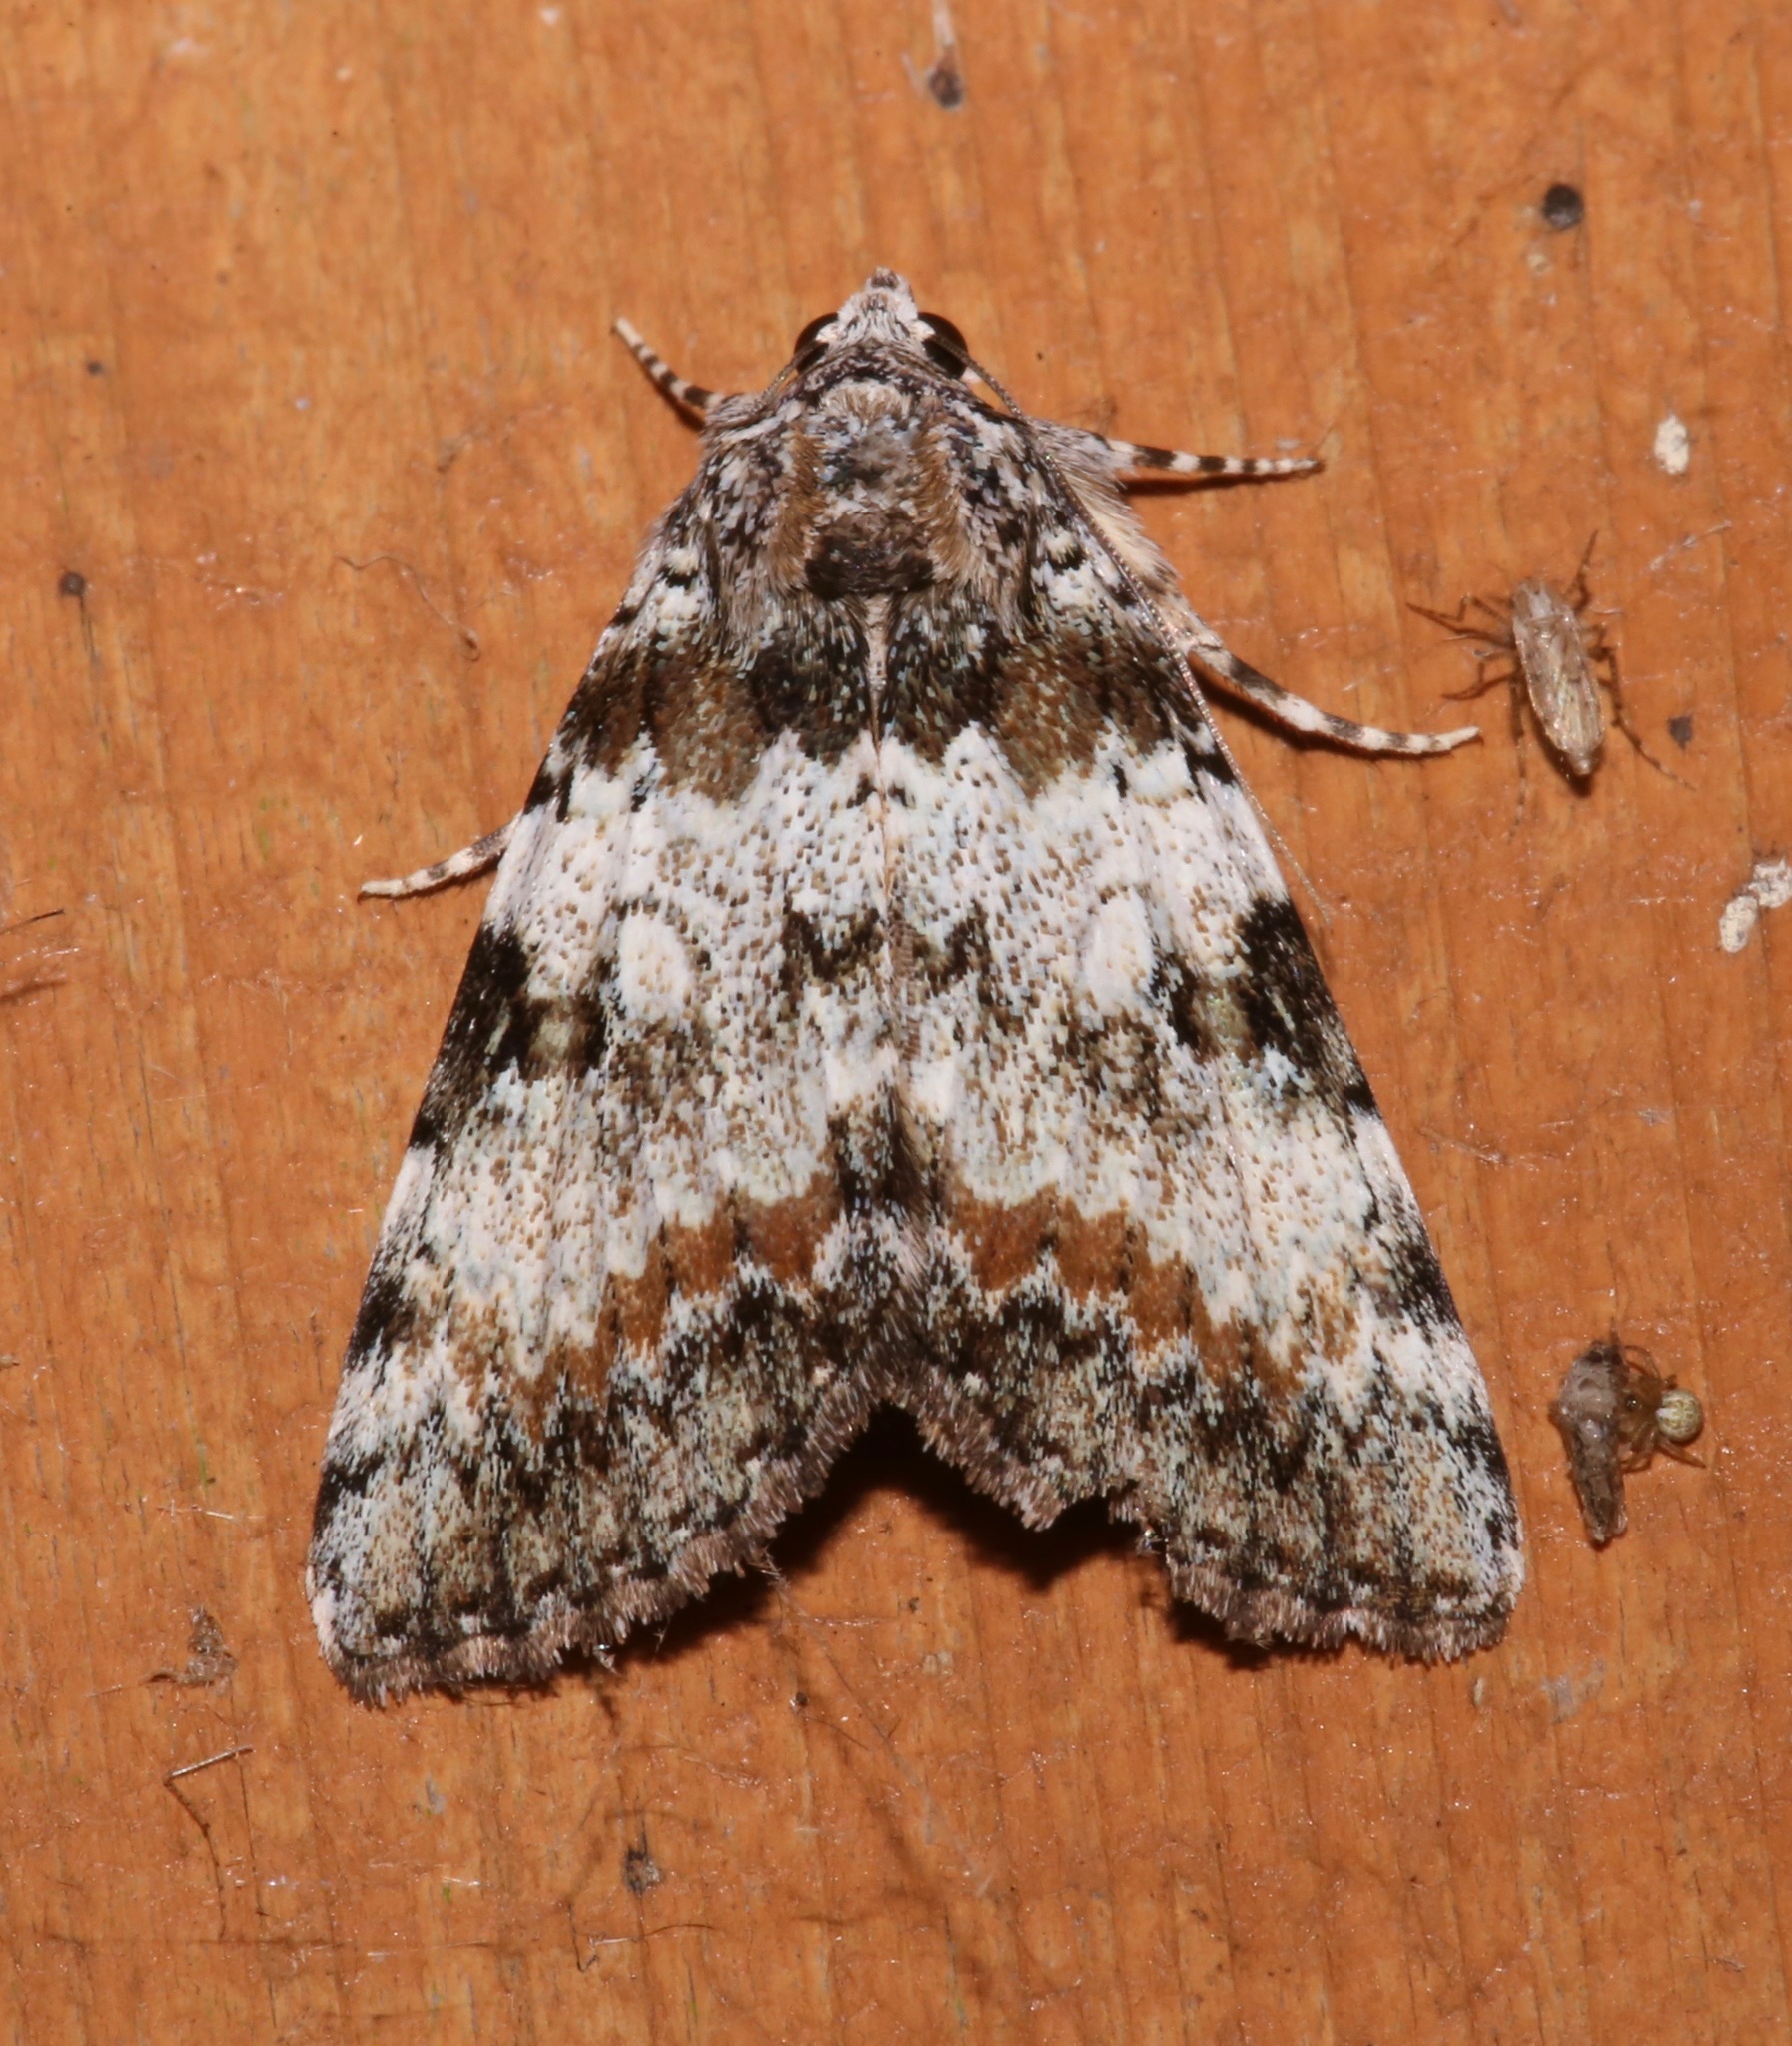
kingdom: Animalia
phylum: Arthropoda
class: Insecta
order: Lepidoptera
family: Erebidae
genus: Catocala
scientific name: Catocala connubialis
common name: Connubial underwing
